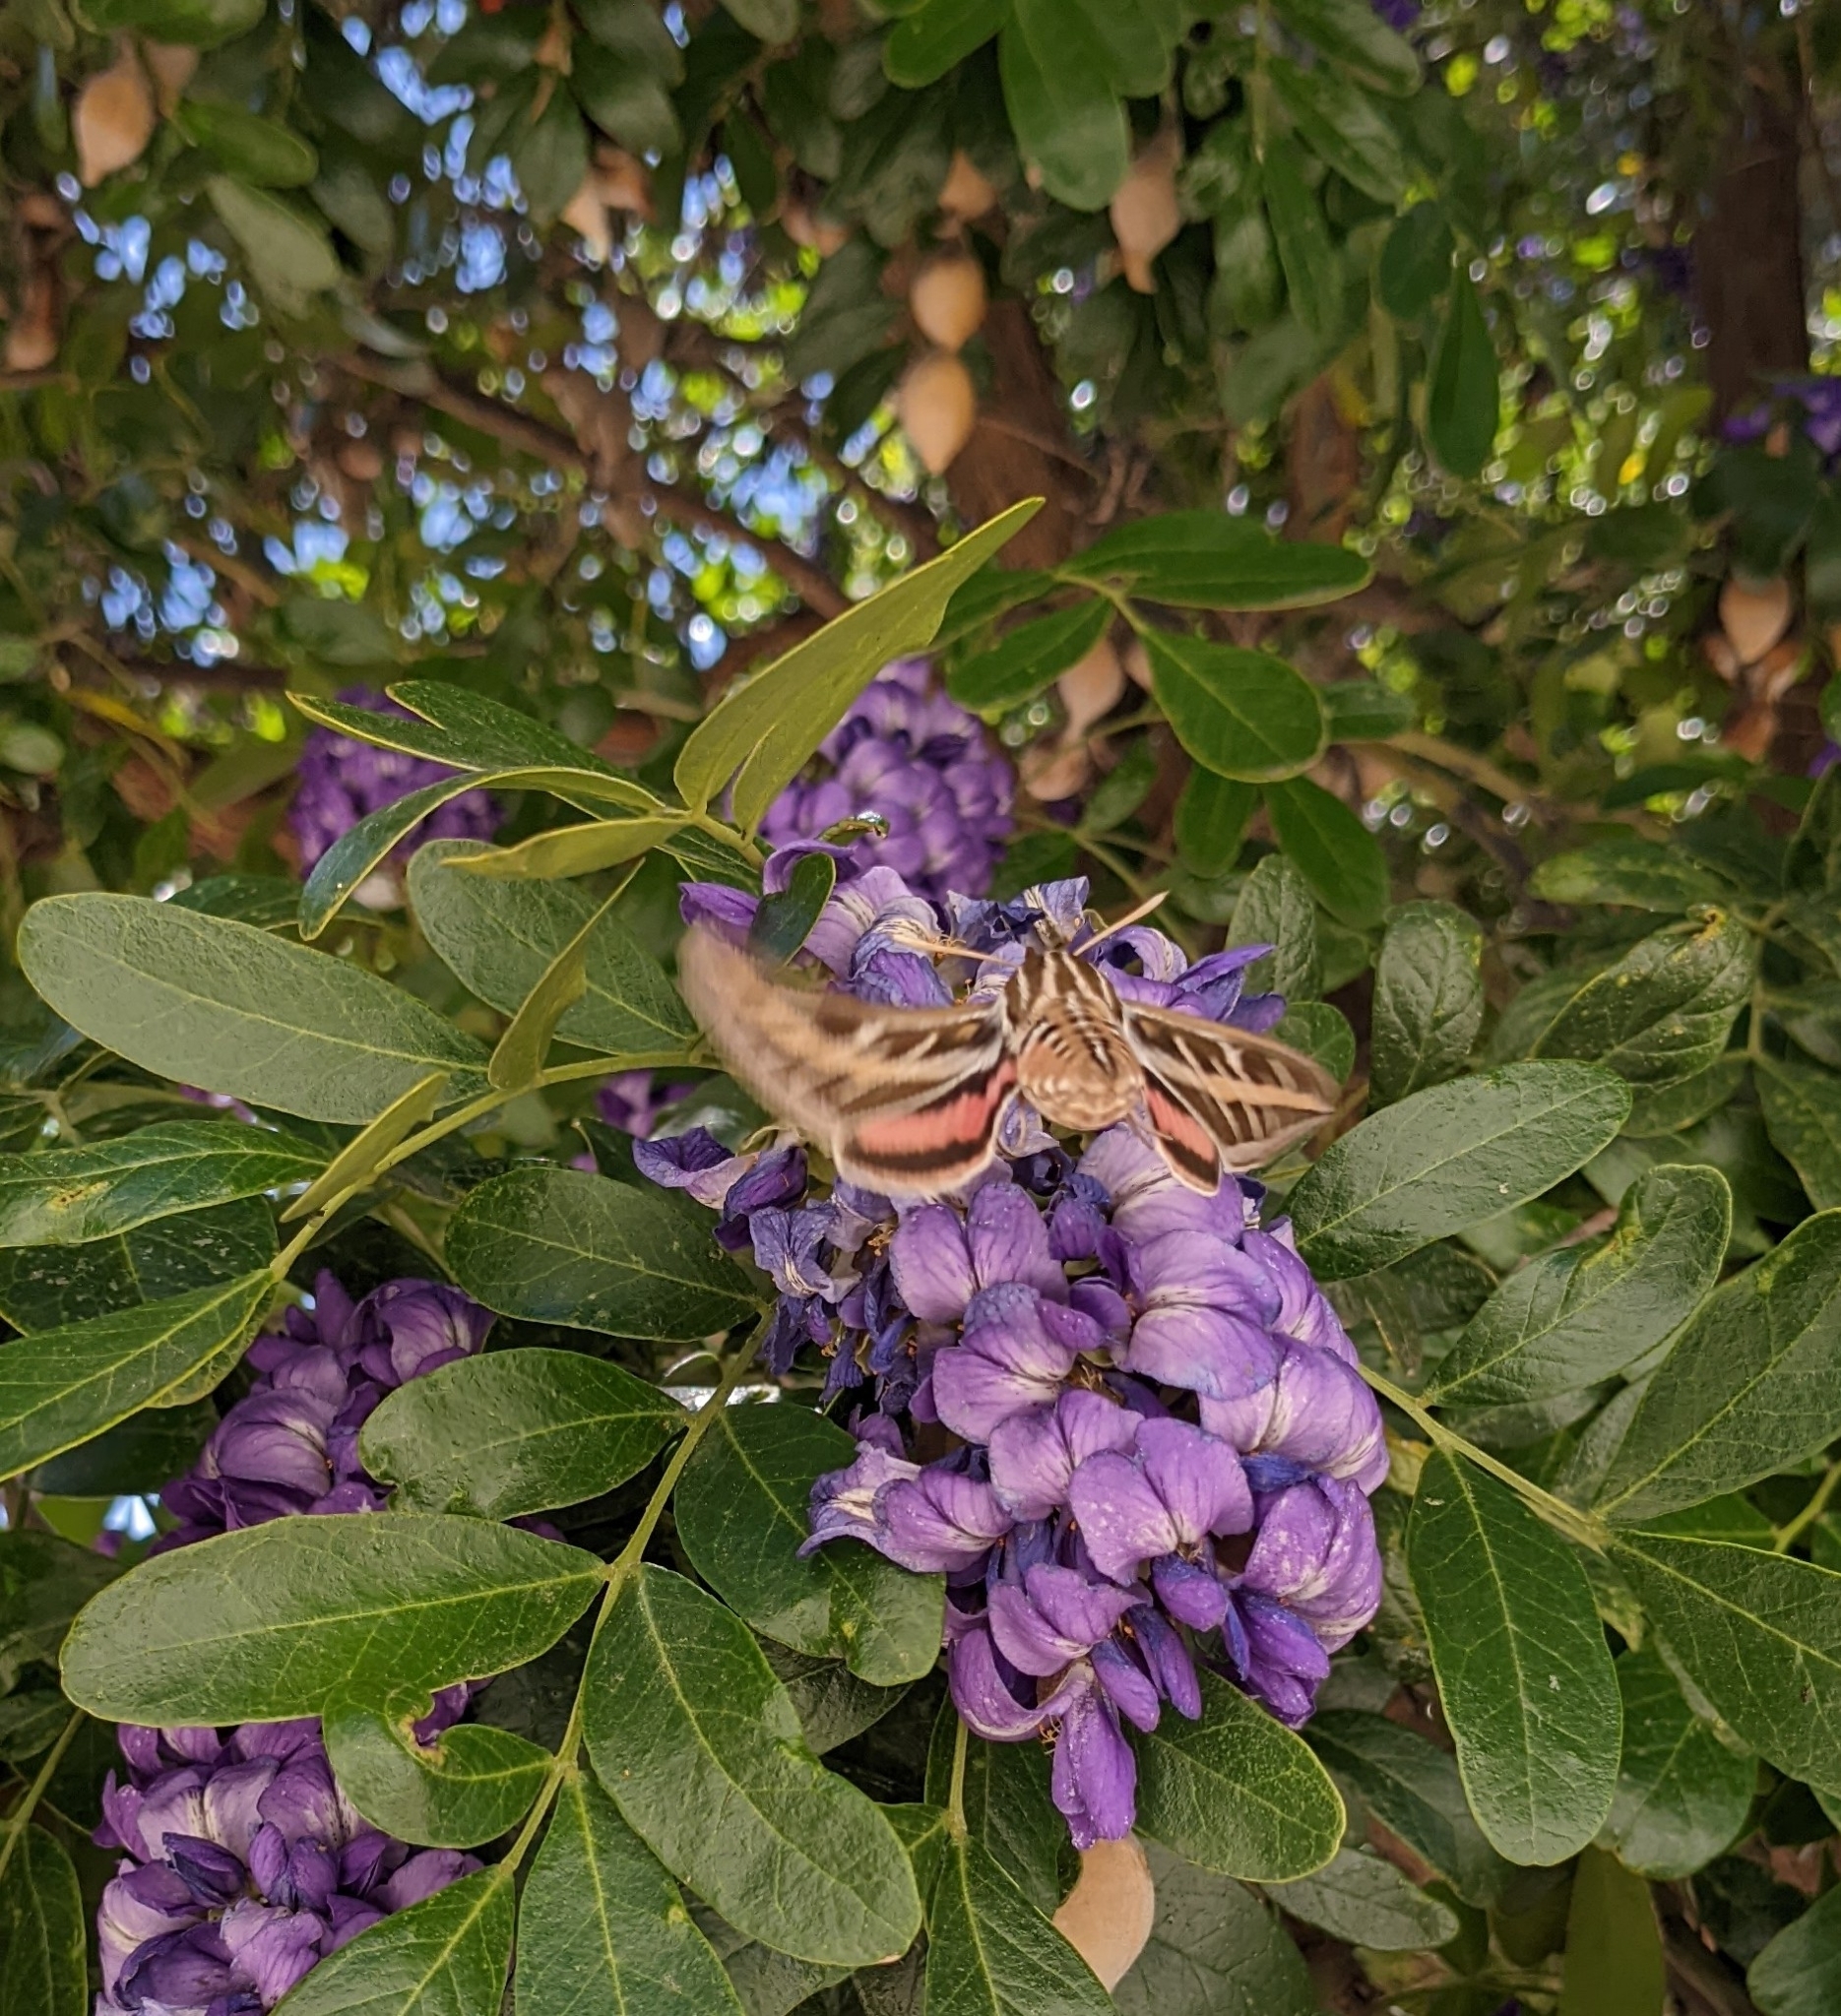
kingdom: Animalia
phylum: Arthropoda
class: Insecta
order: Lepidoptera
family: Sphingidae
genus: Hyles
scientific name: Hyles lineata
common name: White-lined sphinx
